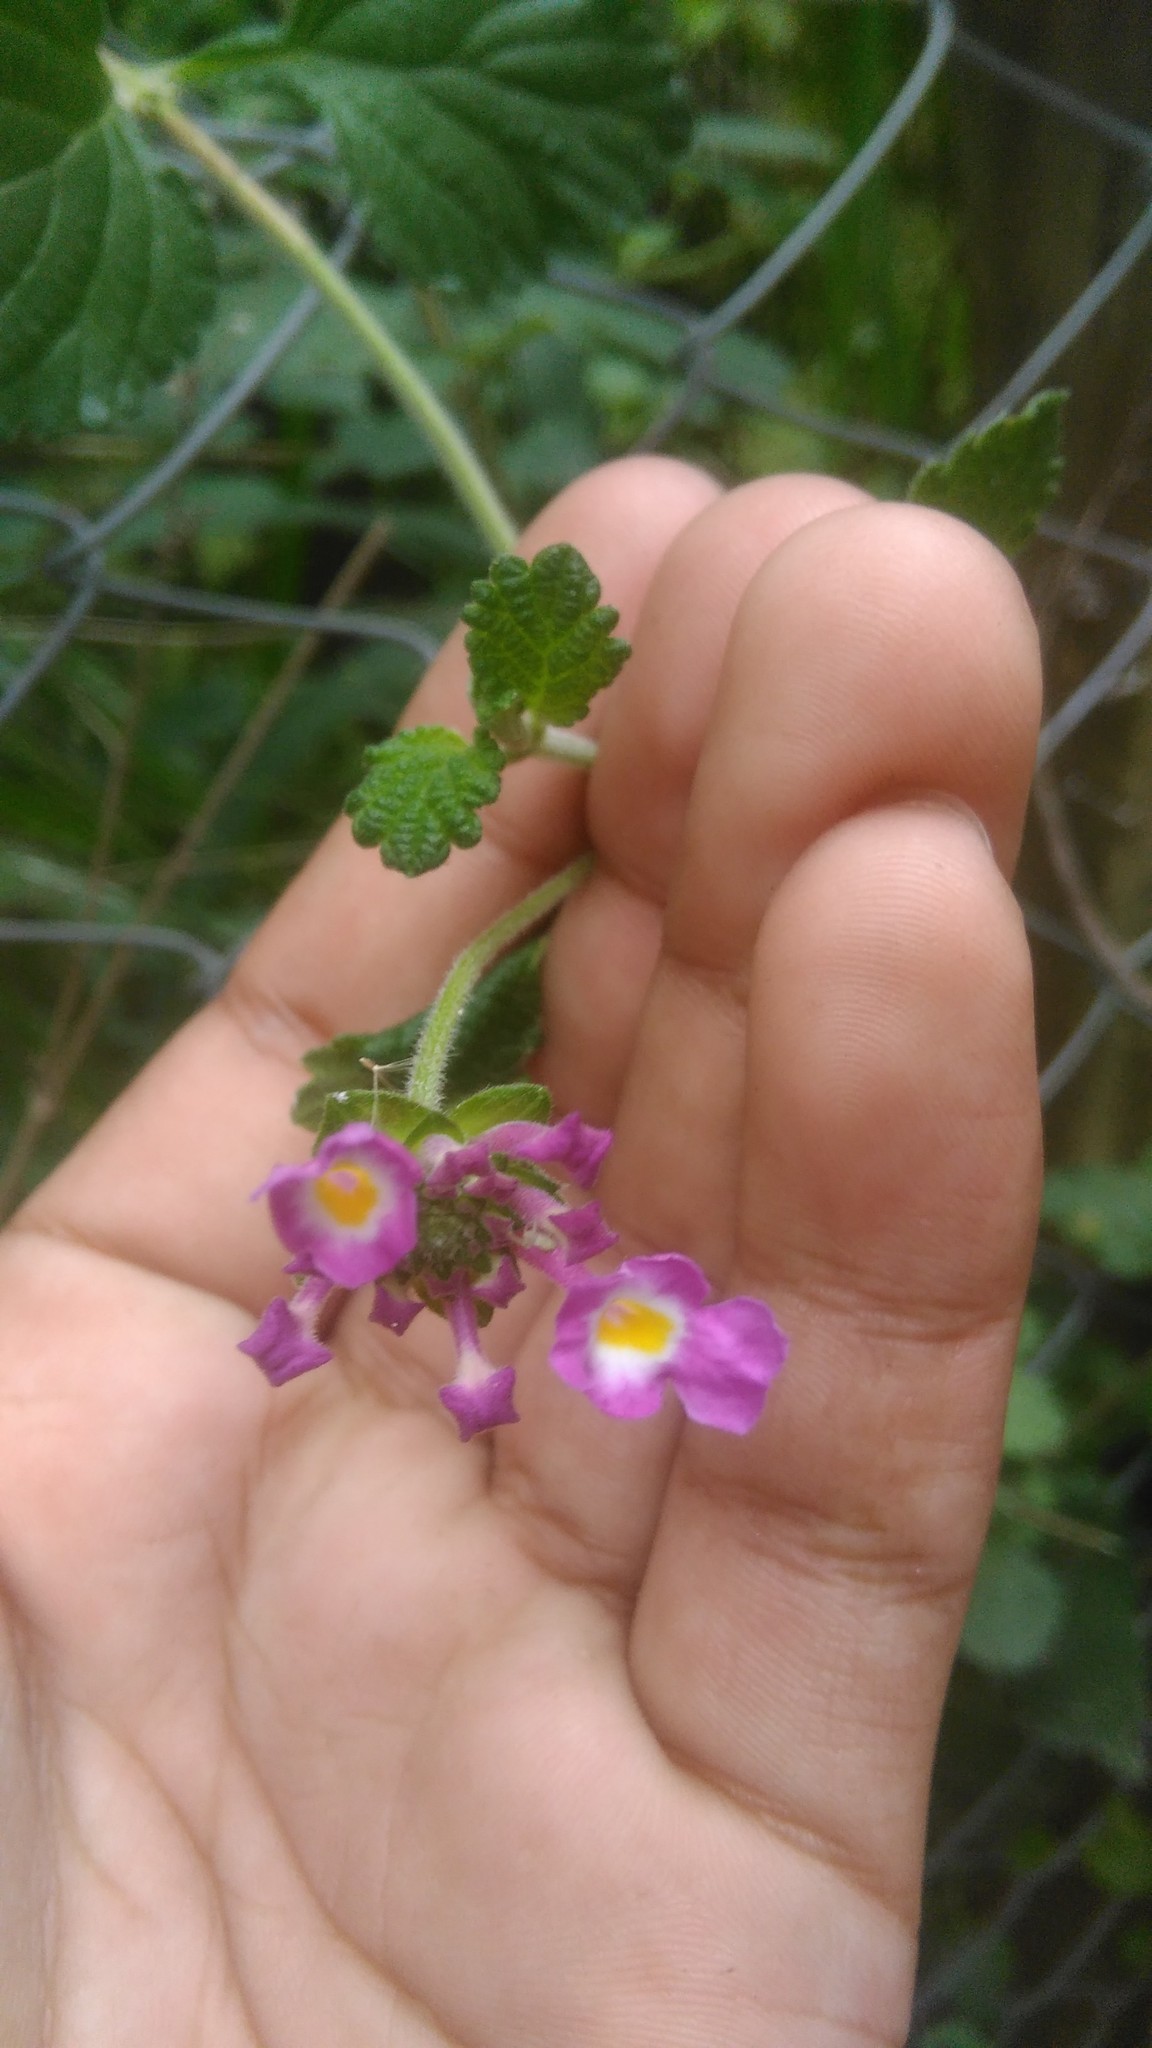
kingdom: Plantae
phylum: Tracheophyta
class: Magnoliopsida
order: Lamiales
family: Verbenaceae
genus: Lantana
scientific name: Lantana megapotamica
